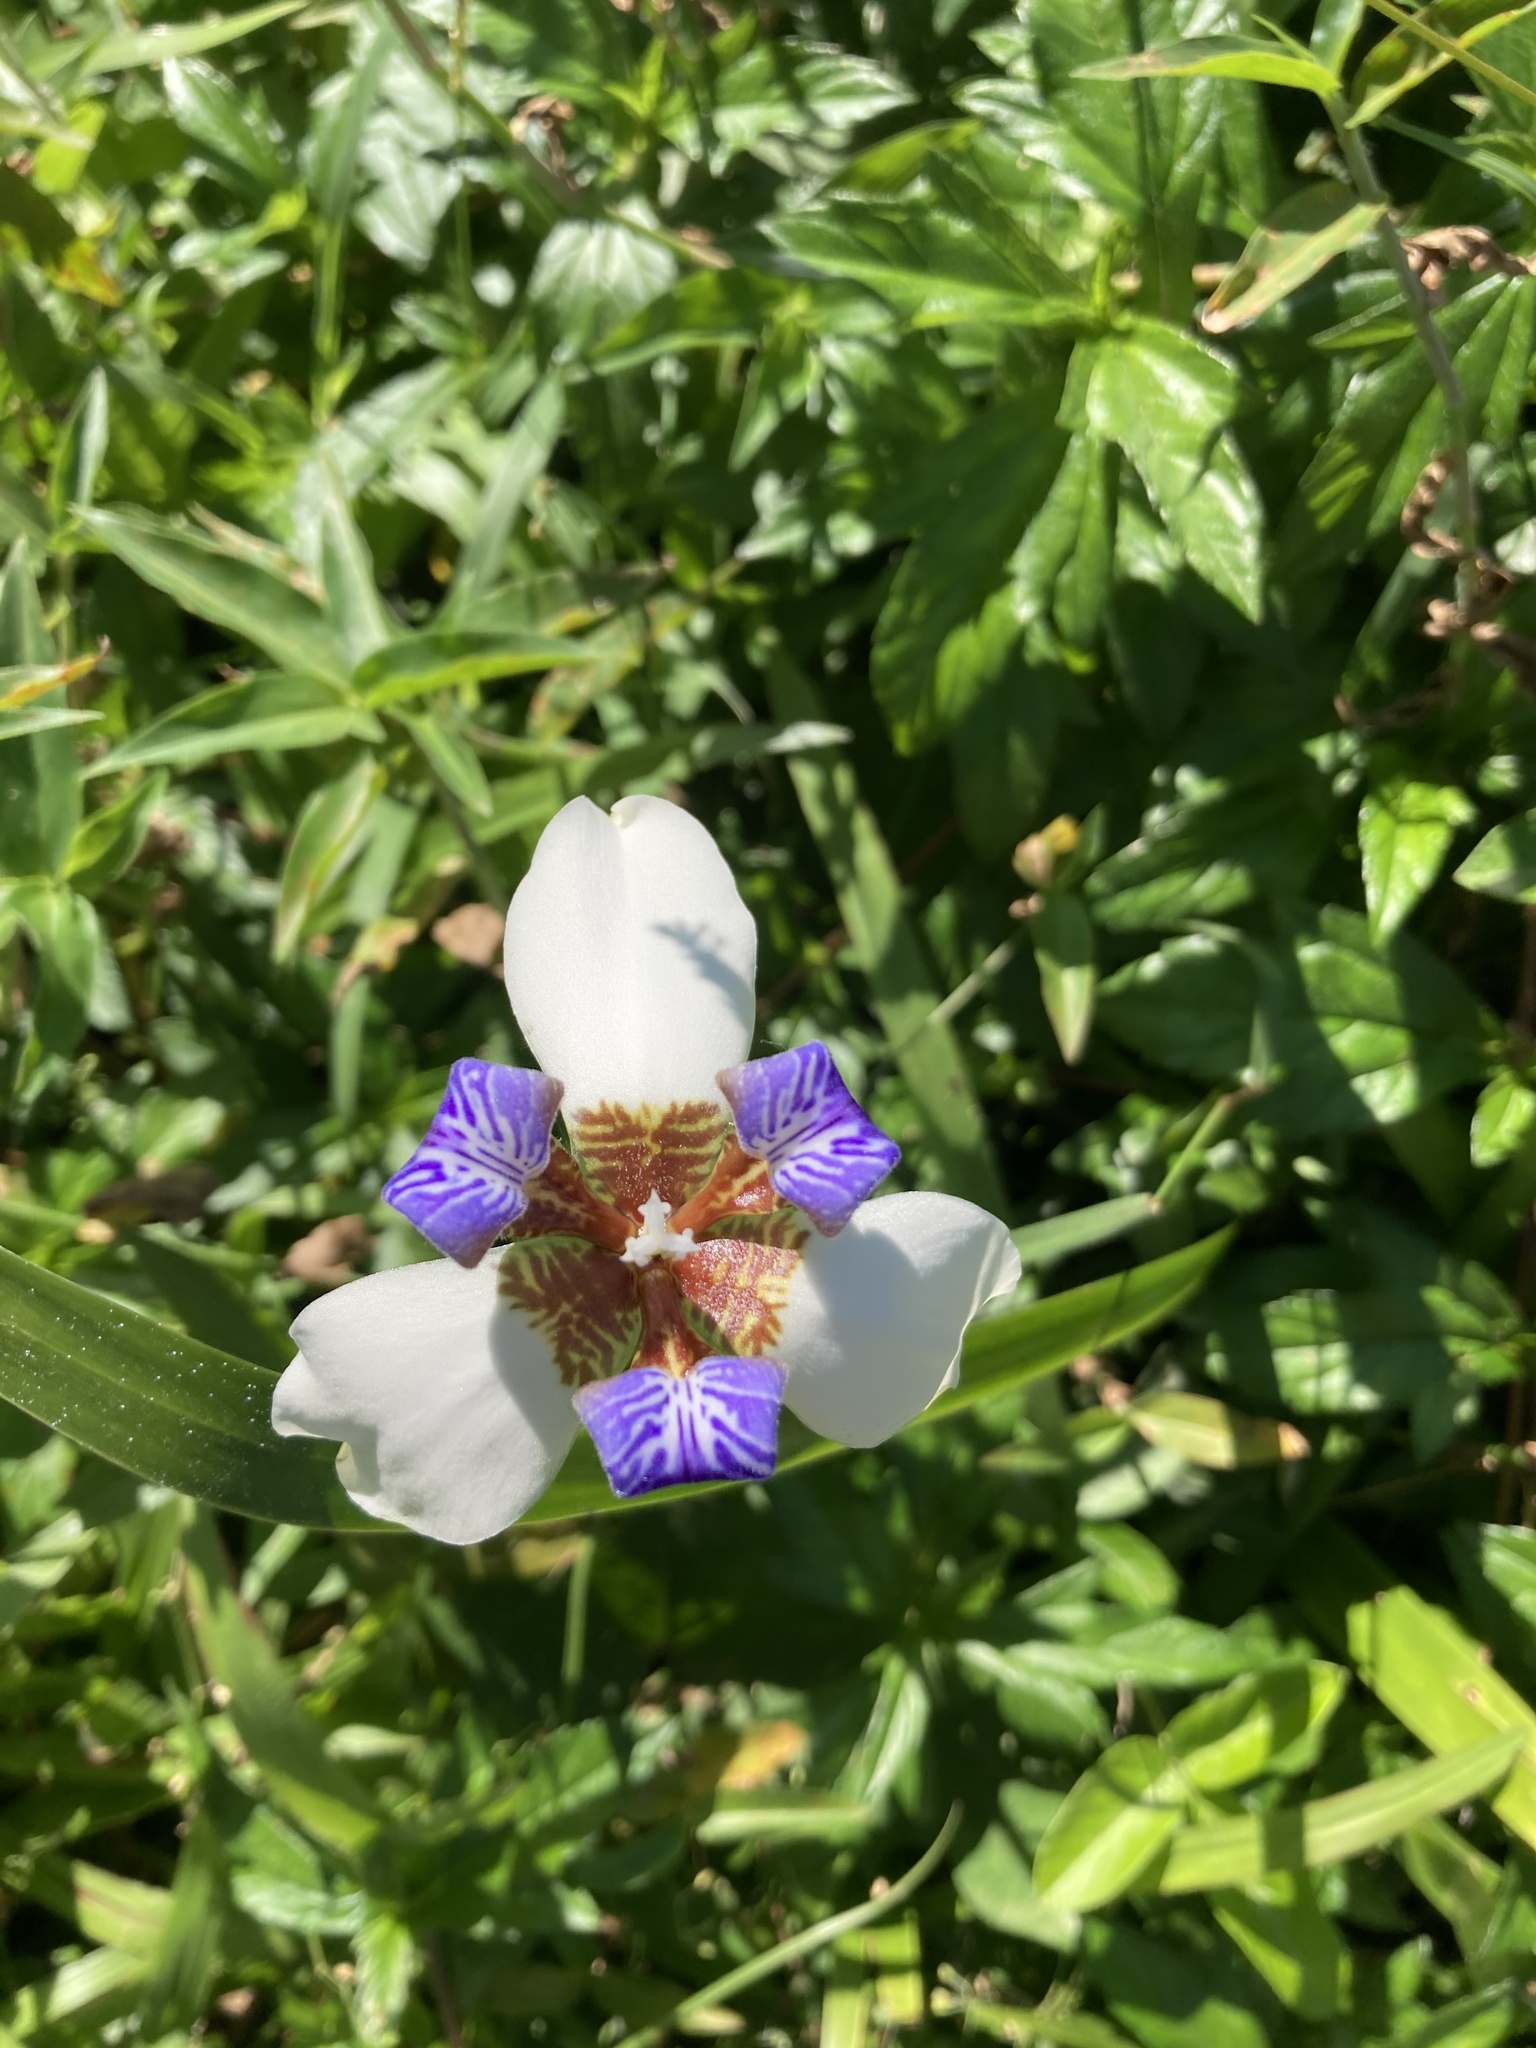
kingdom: Plantae
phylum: Tracheophyta
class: Liliopsida
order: Asparagales
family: Iridaceae
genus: Trimezia
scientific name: Trimezia gracilis
